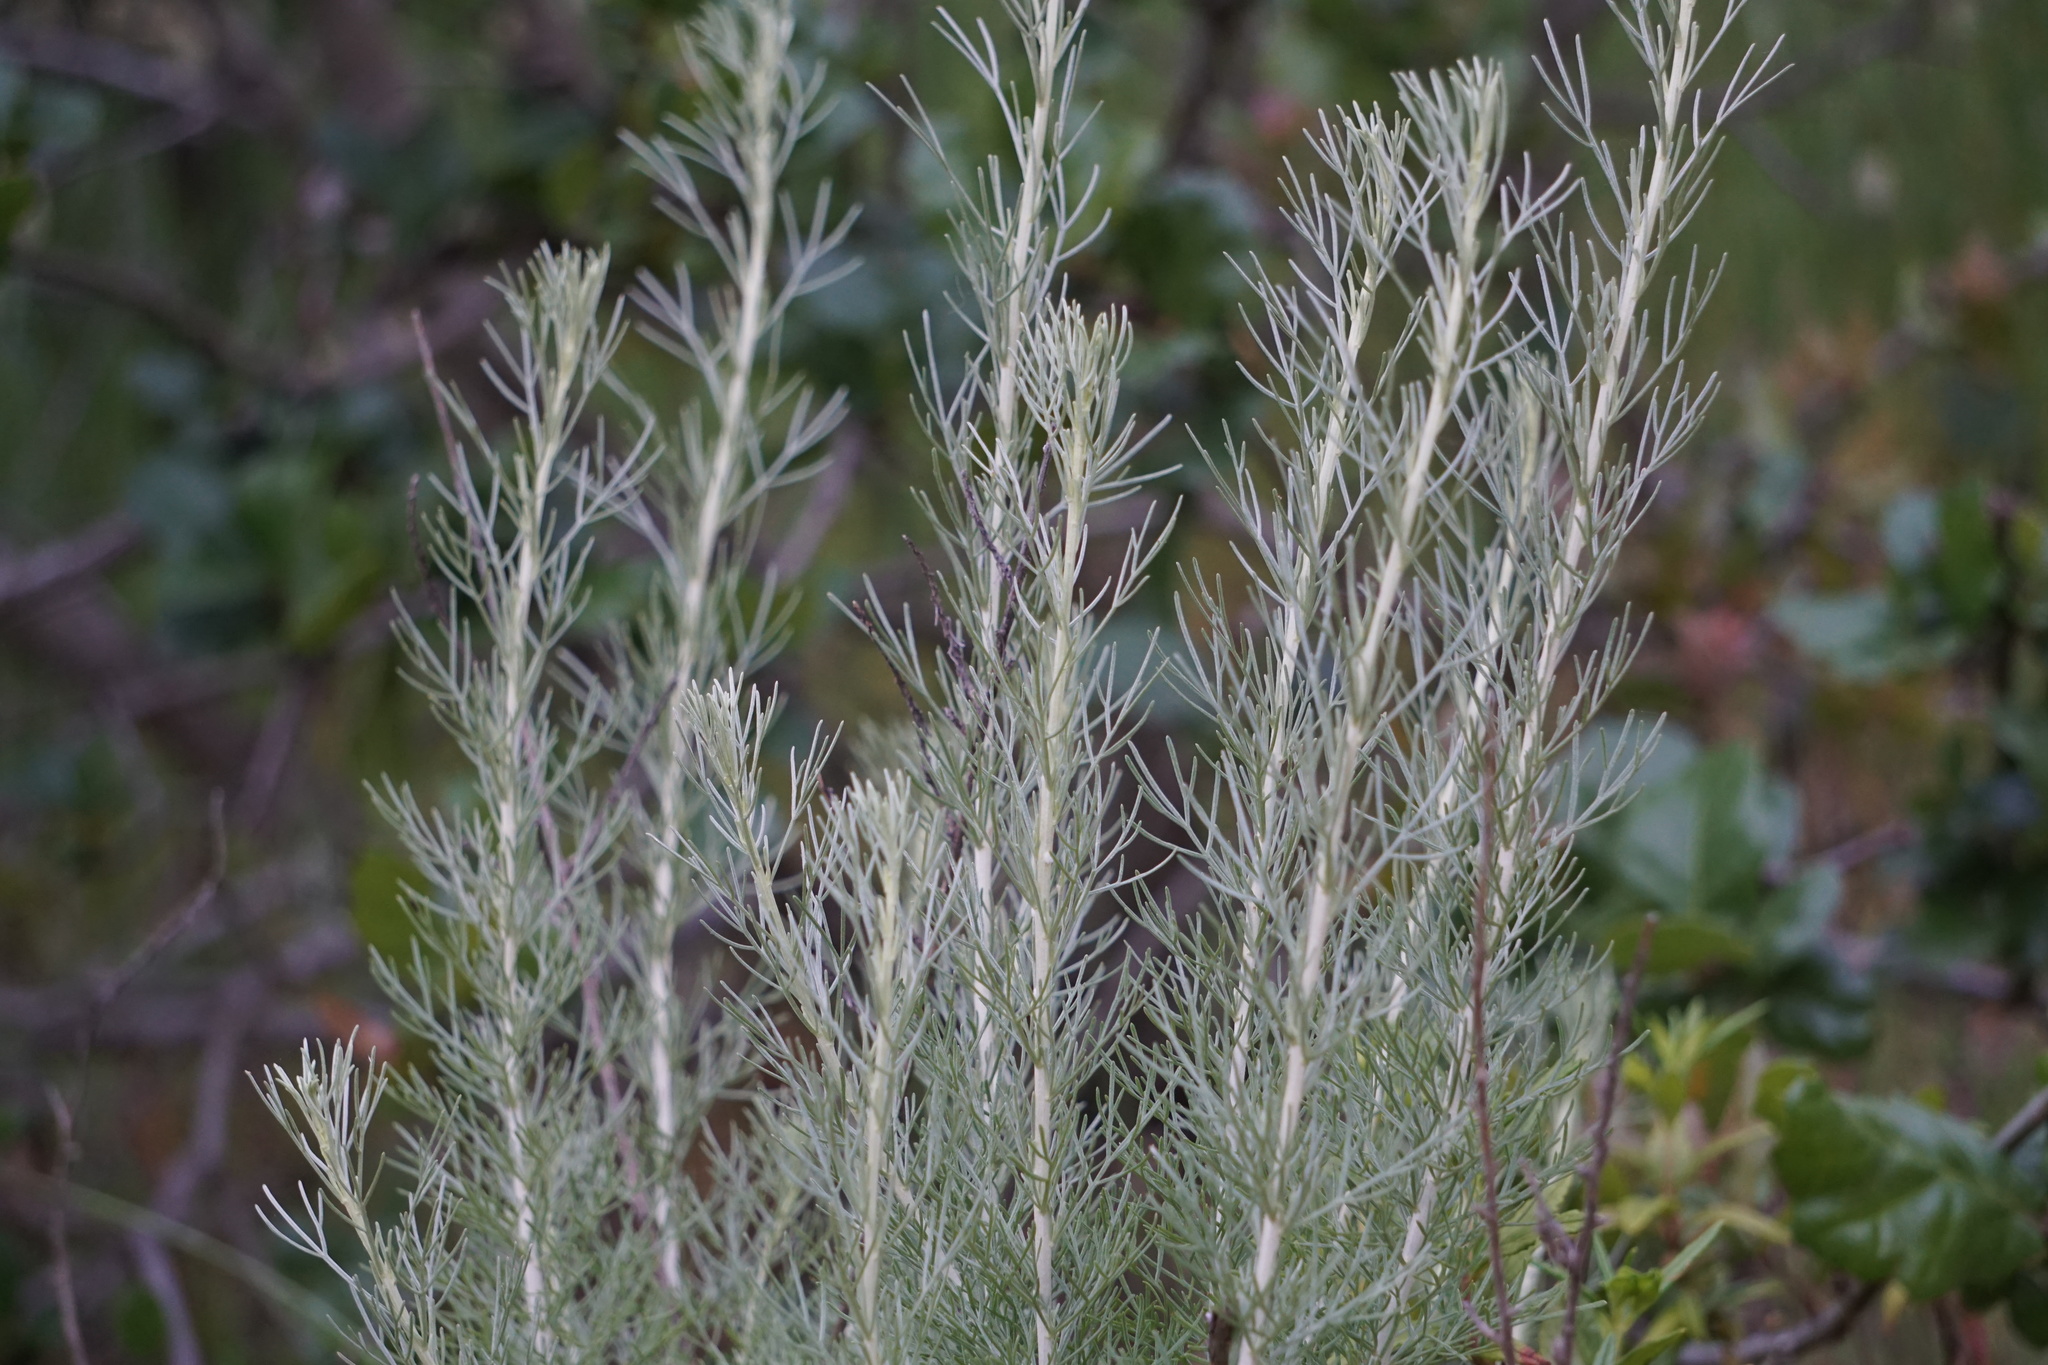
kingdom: Plantae
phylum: Tracheophyta
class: Magnoliopsida
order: Asterales
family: Asteraceae
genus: Artemisia
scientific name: Artemisia californica
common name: California sagebrush
